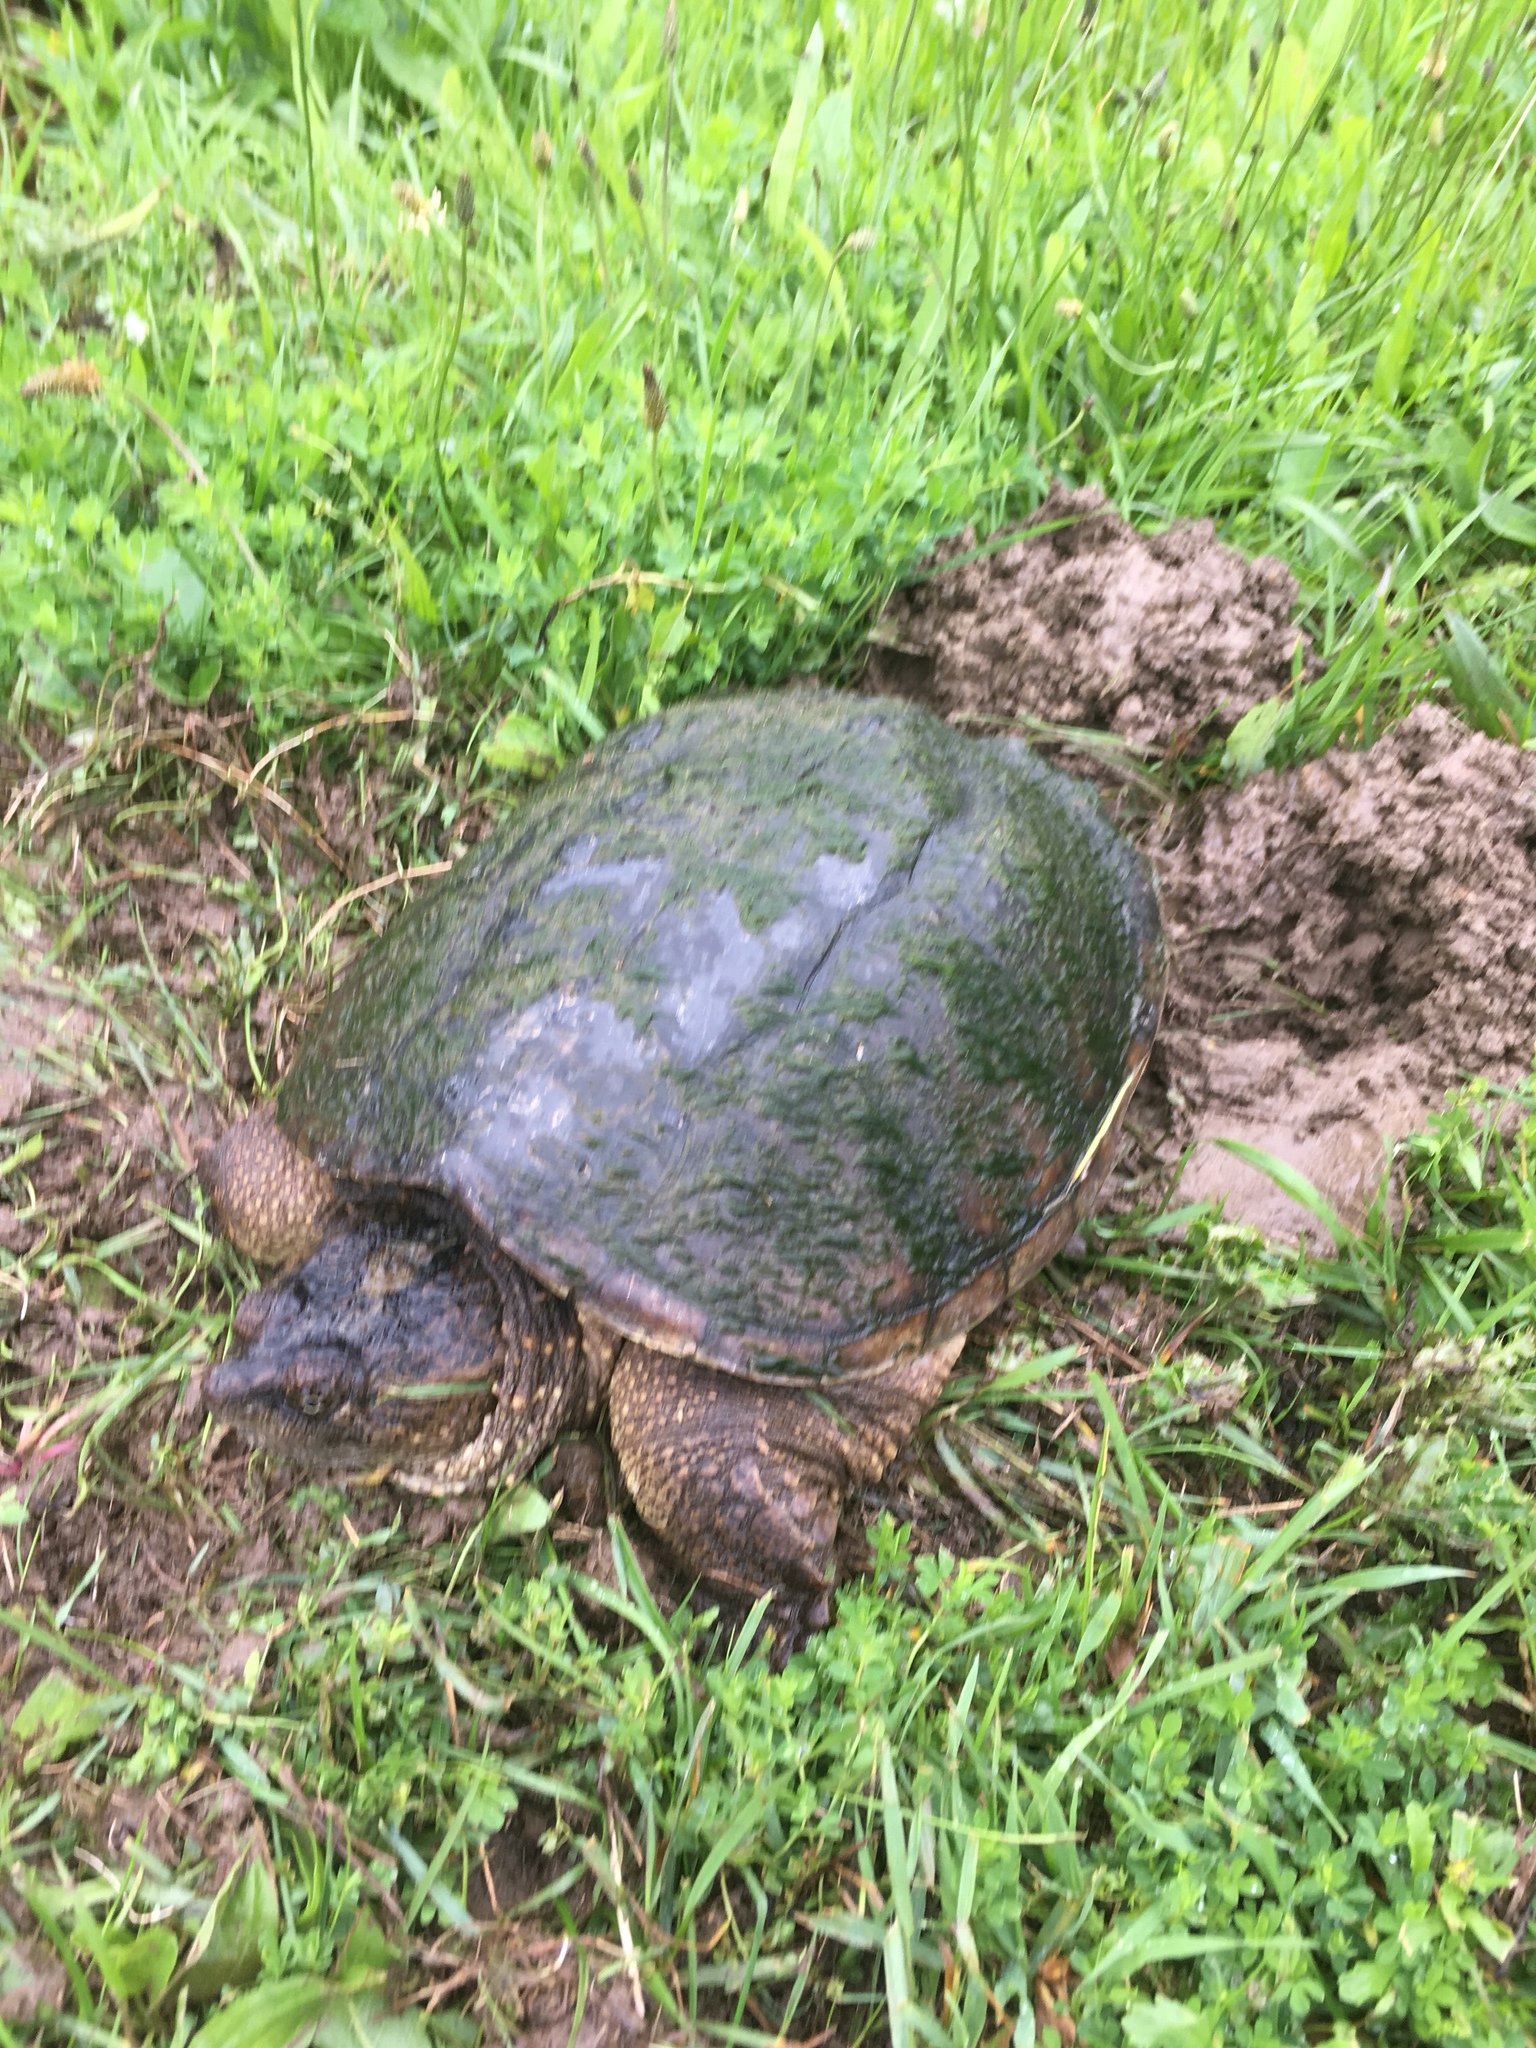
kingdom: Animalia
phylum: Chordata
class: Testudines
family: Chelydridae
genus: Chelydra
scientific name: Chelydra serpentina
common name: Common snapping turtle
